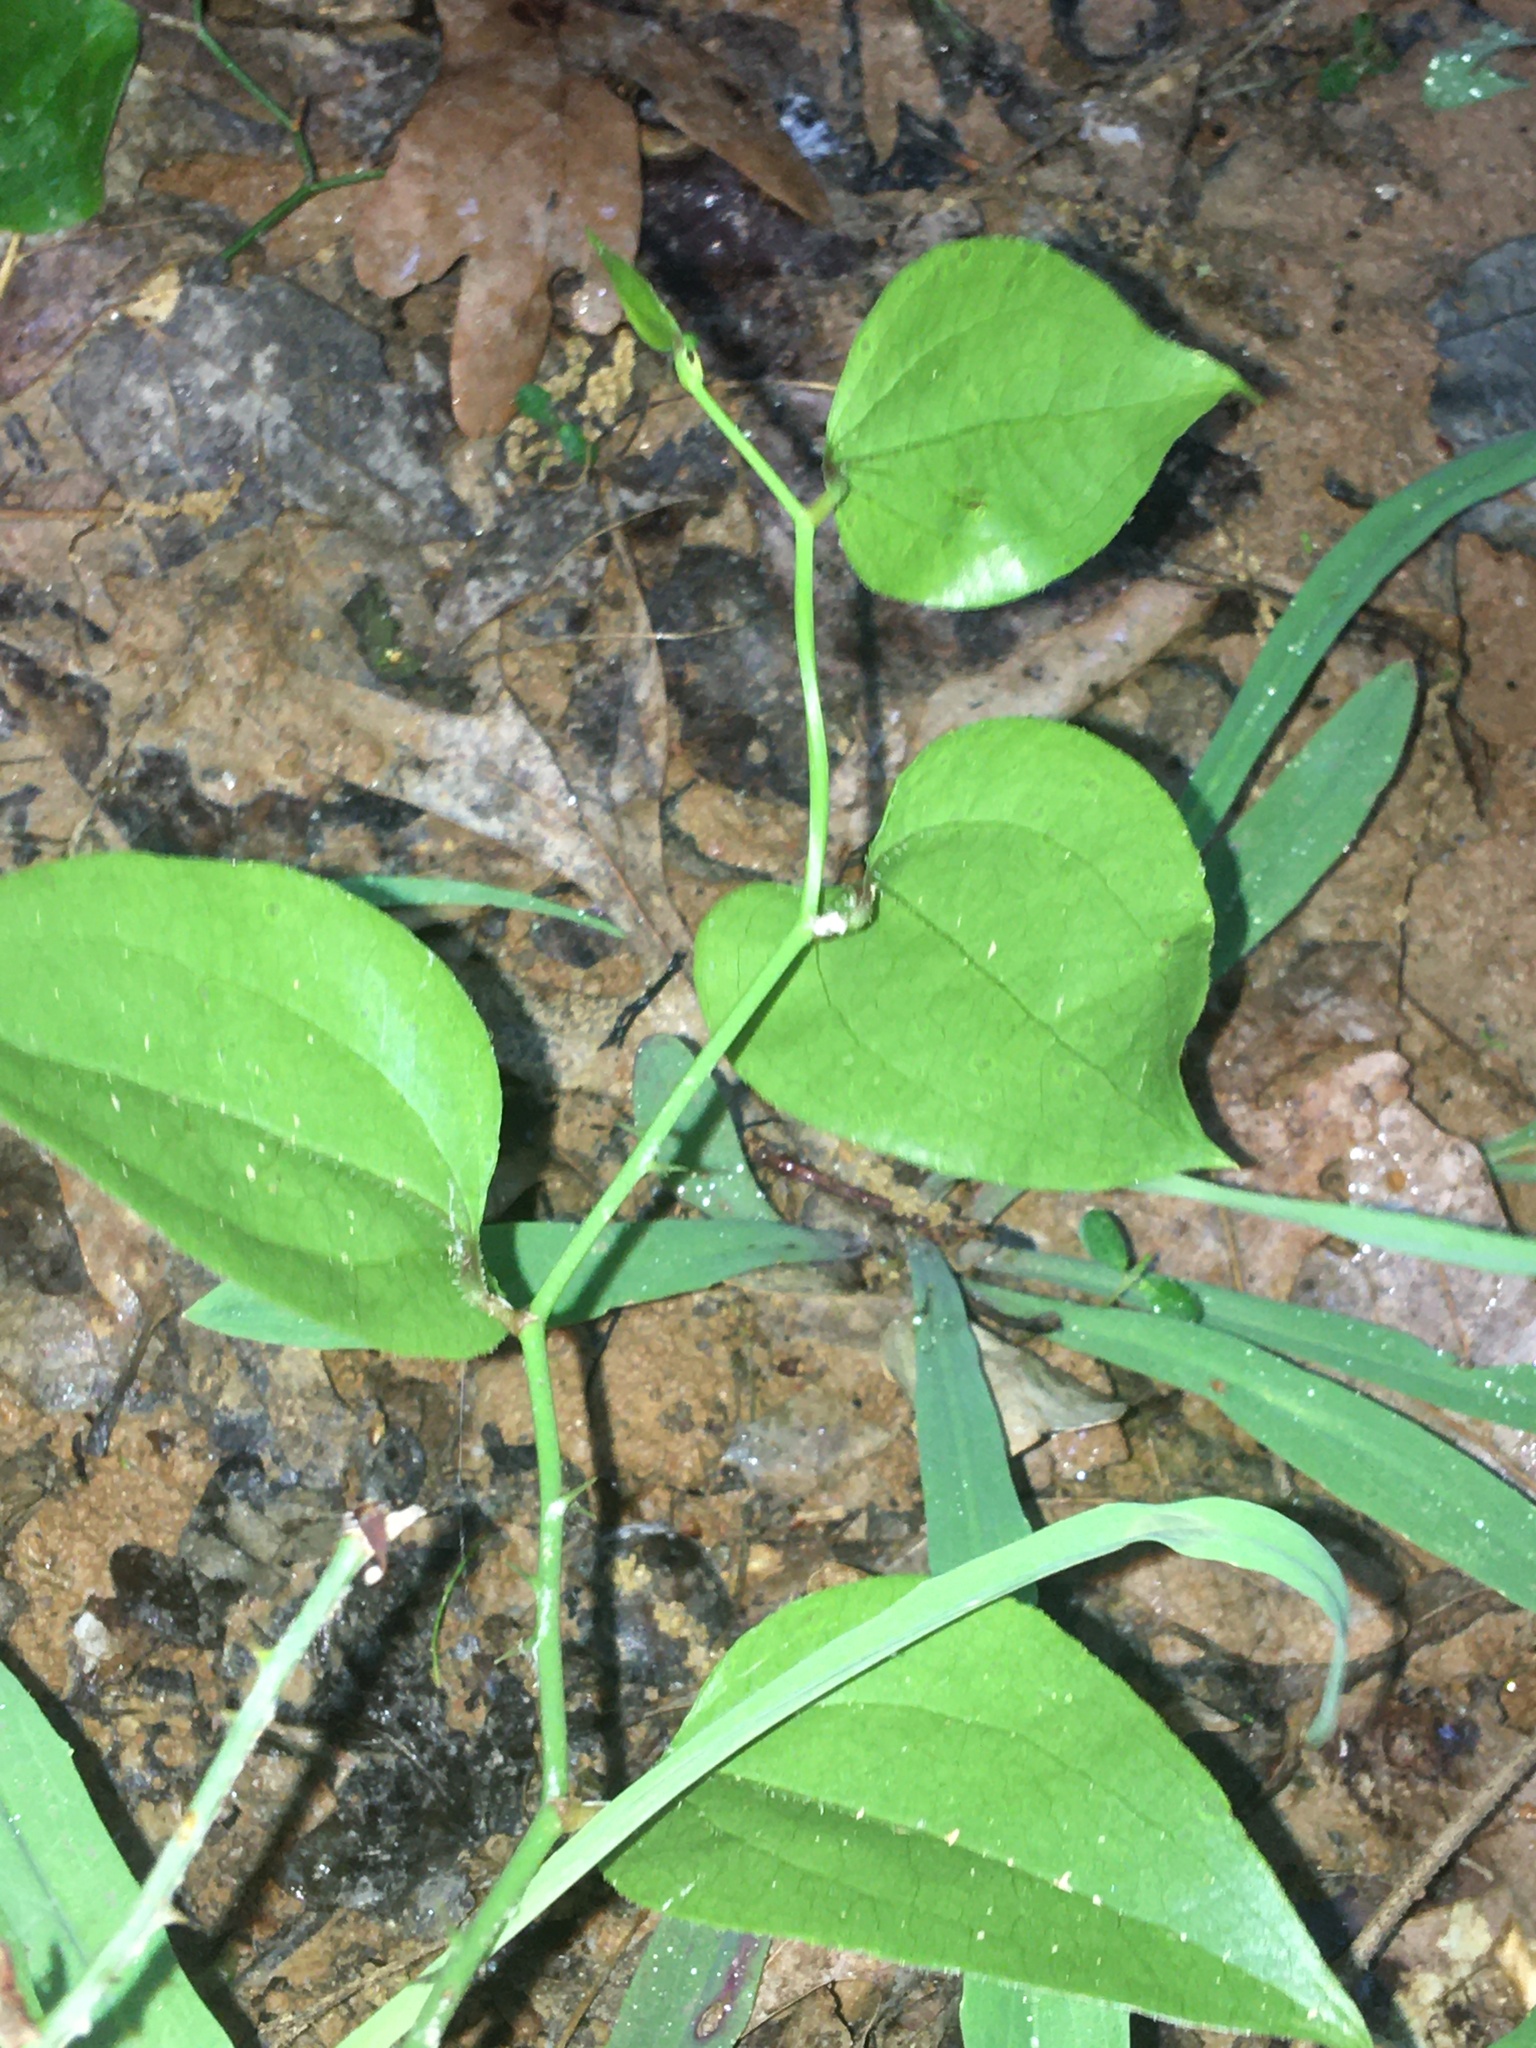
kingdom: Plantae
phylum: Tracheophyta
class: Liliopsida
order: Liliales
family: Smilacaceae
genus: Smilax
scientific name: Smilax rotundifolia
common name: Bullbriar
